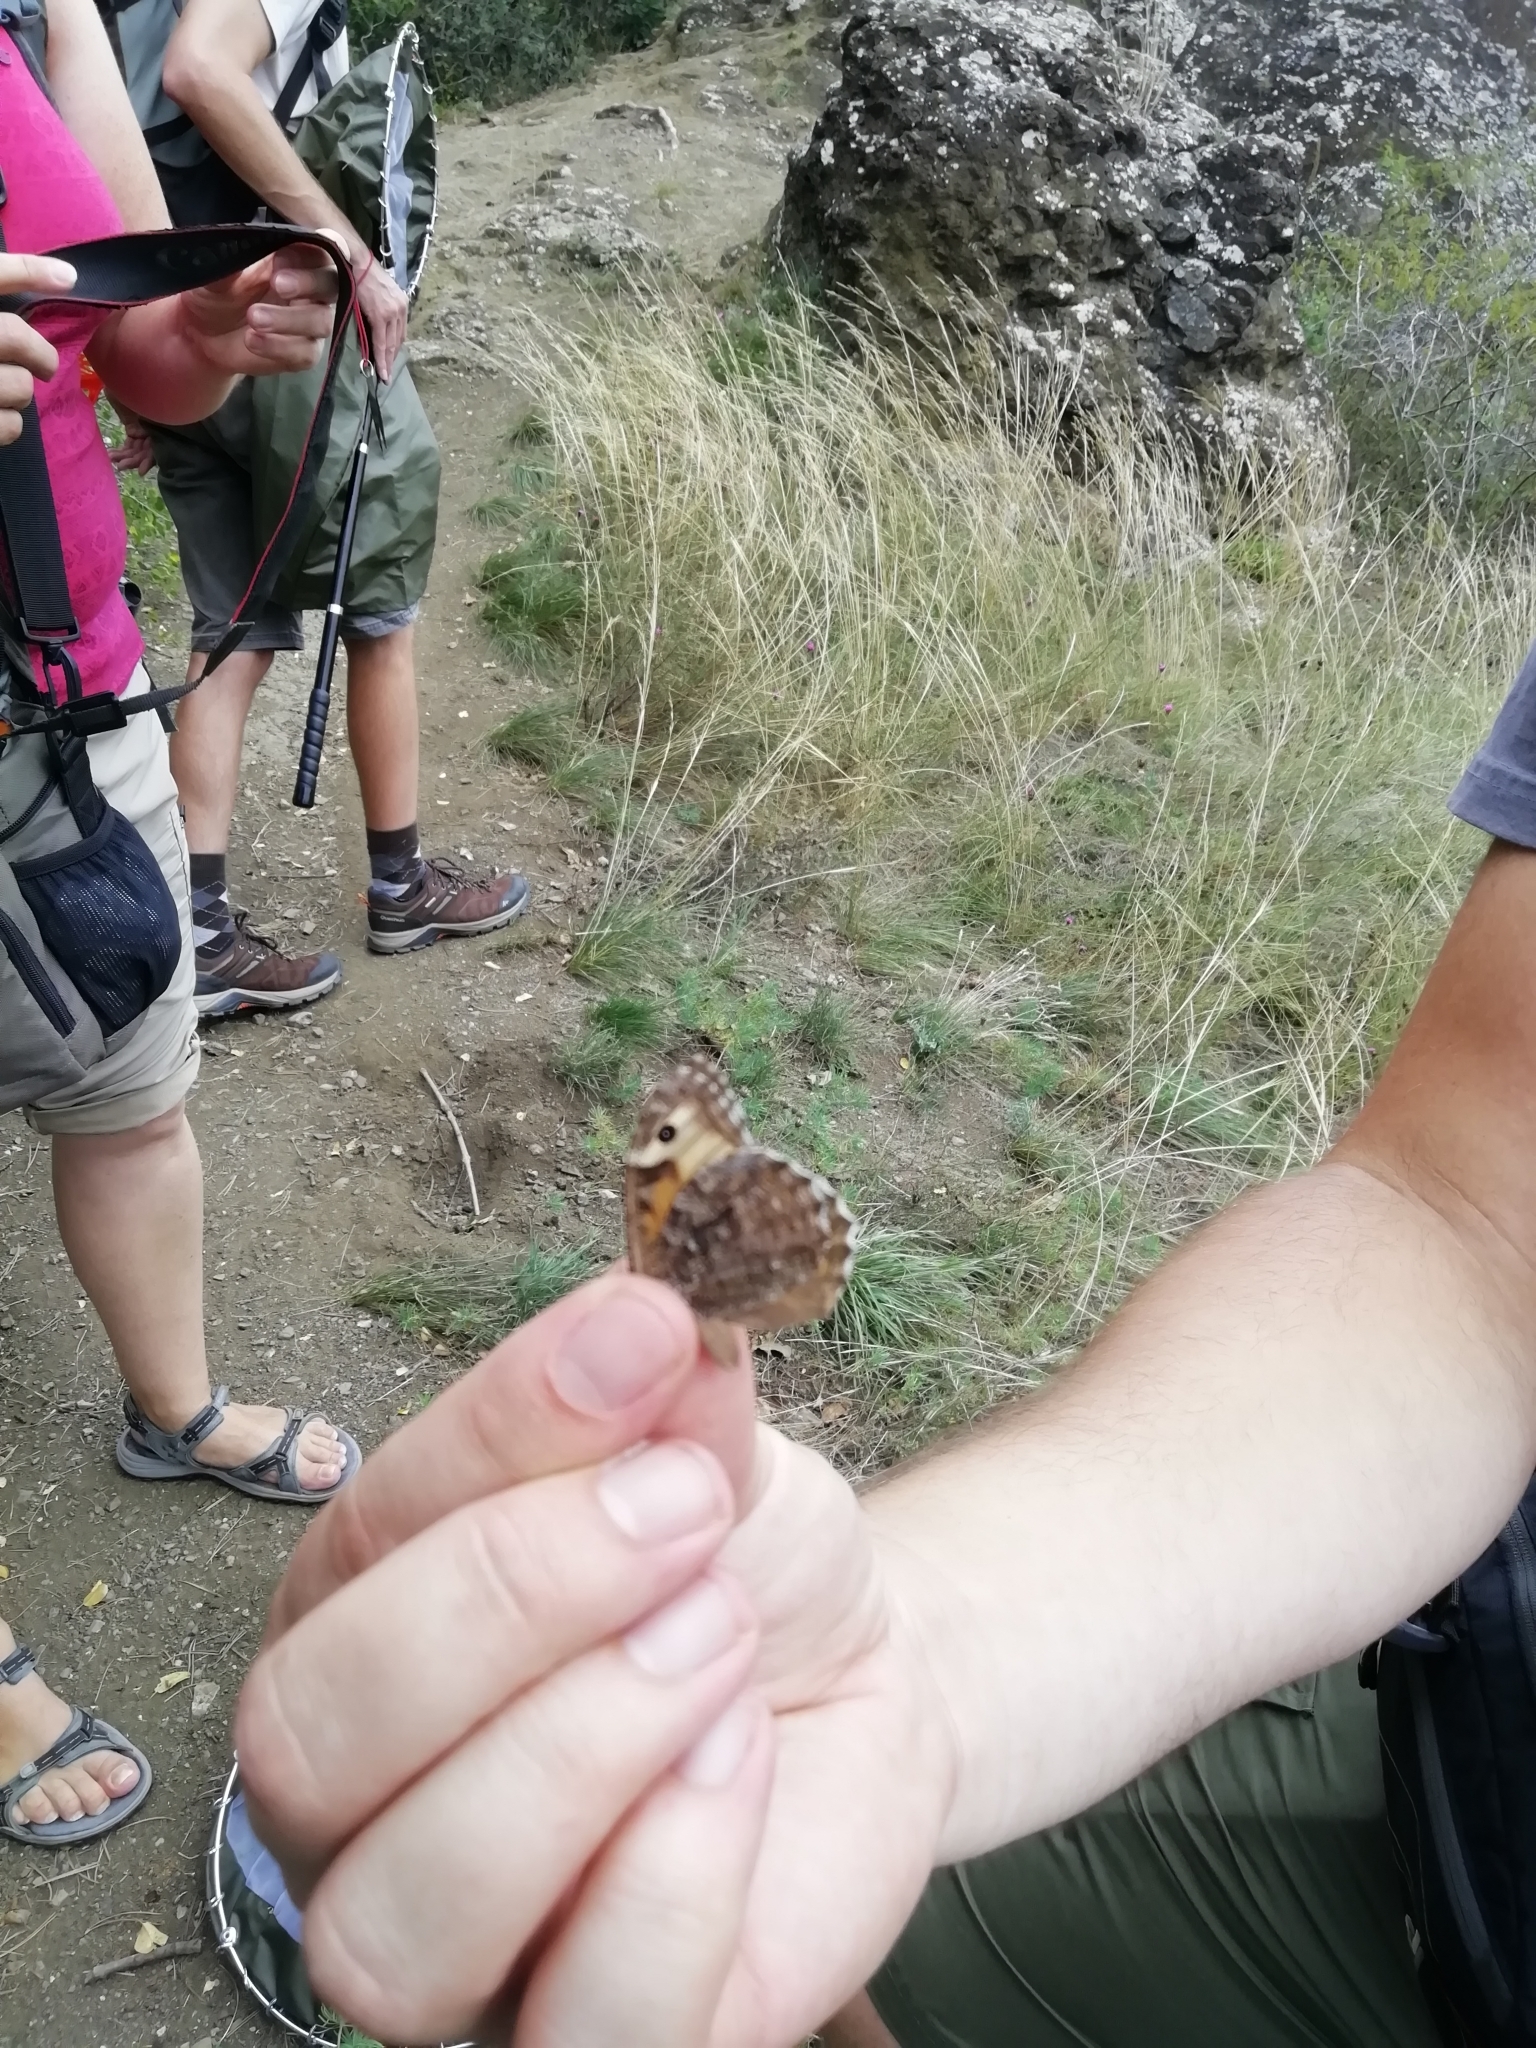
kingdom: Animalia
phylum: Arthropoda
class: Insecta
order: Lepidoptera
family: Nymphalidae
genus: Hipparchia
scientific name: Hipparchia semele
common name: Grayling
